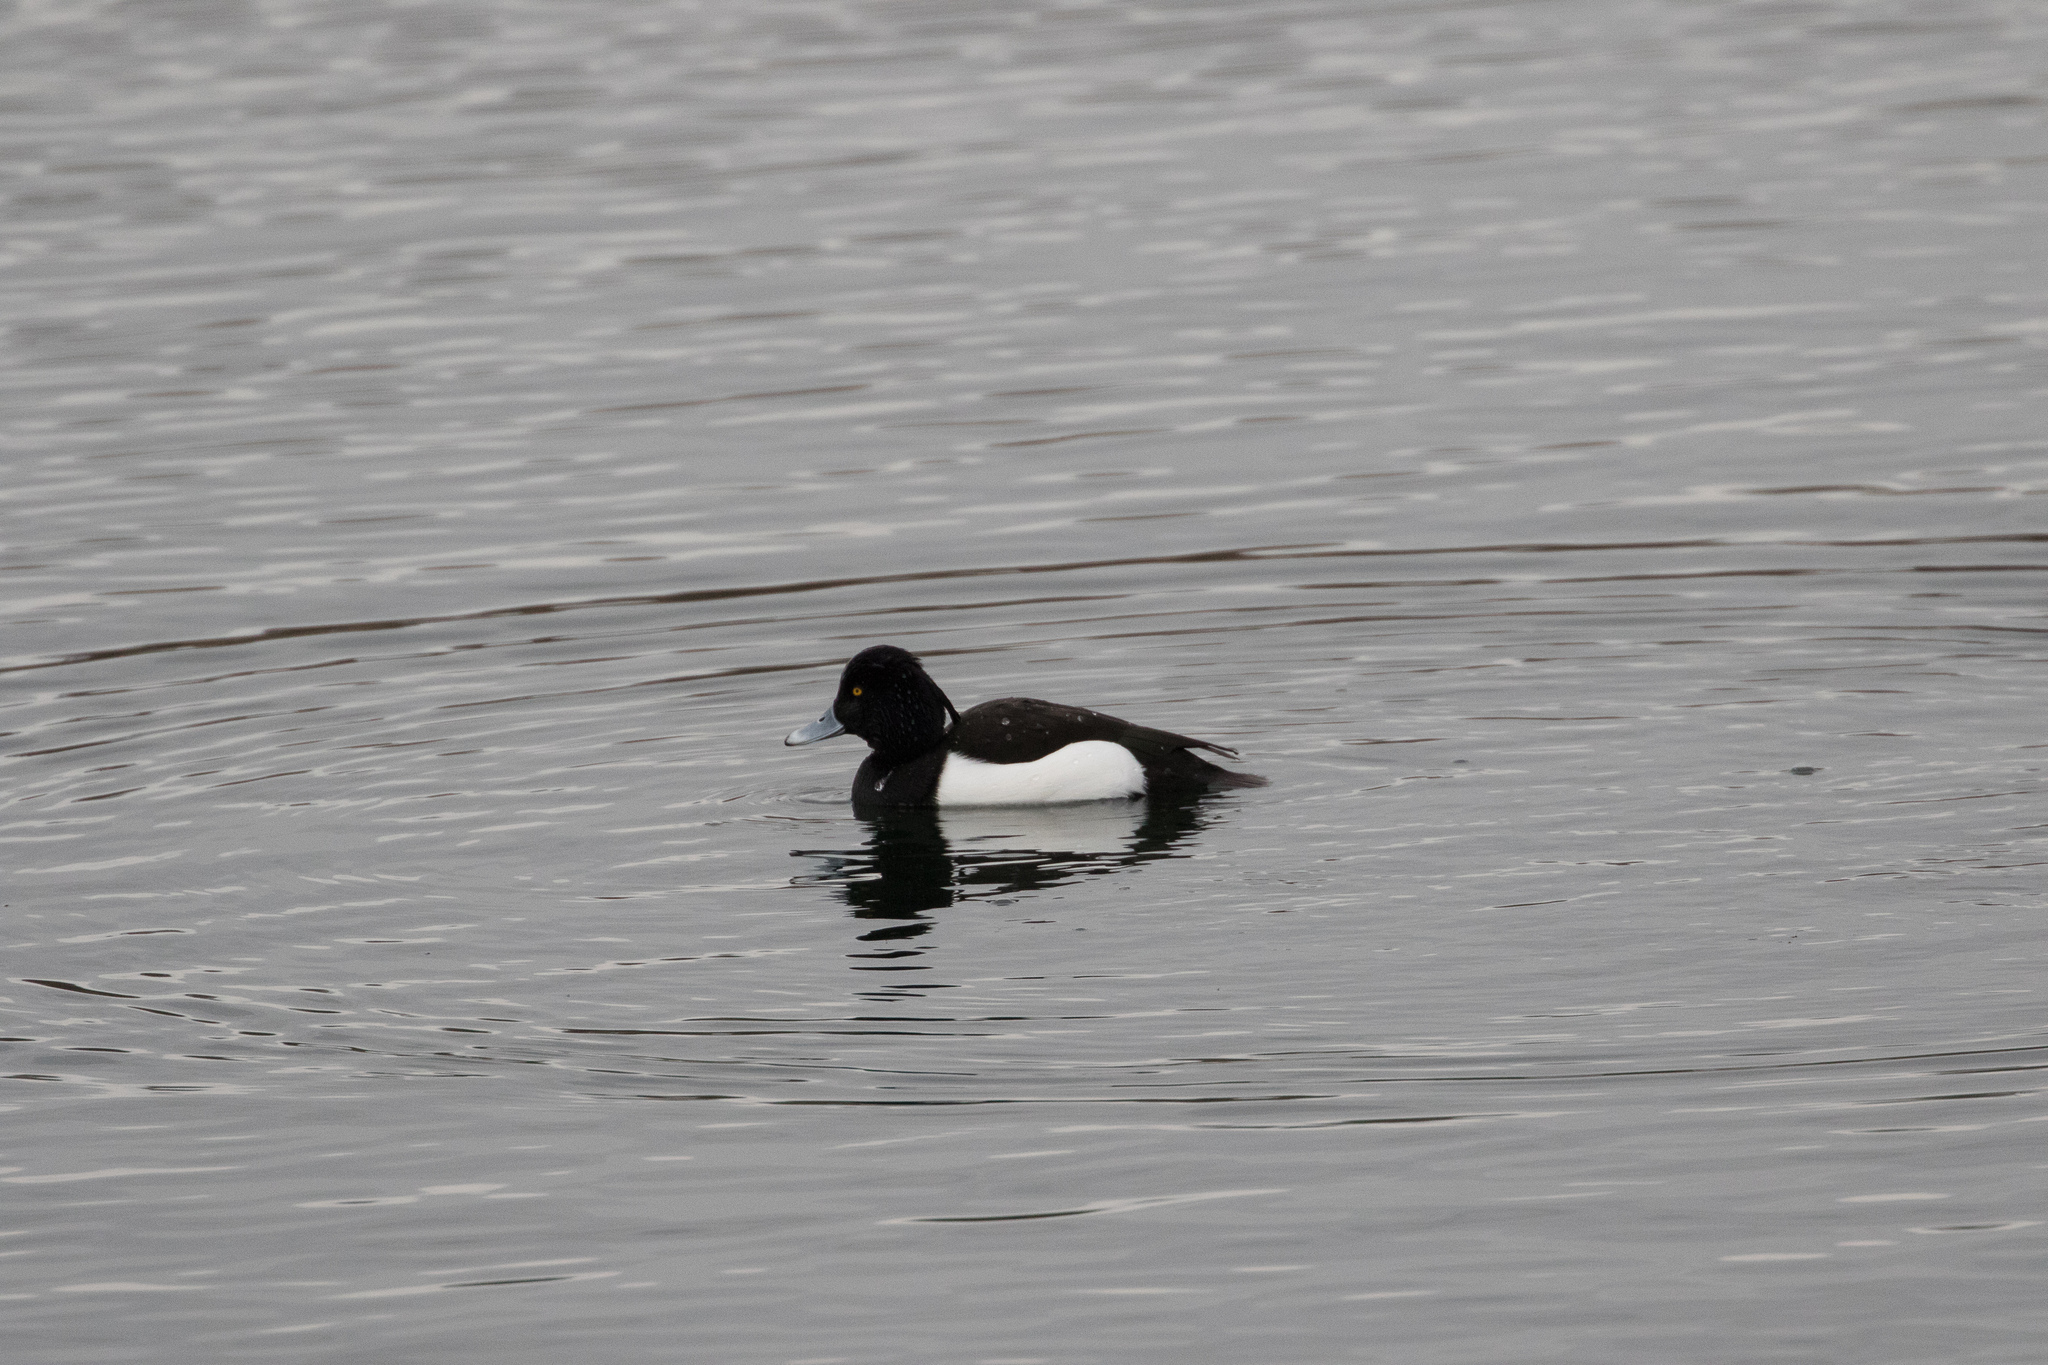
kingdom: Animalia
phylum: Chordata
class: Aves
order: Anseriformes
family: Anatidae
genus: Aythya
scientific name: Aythya fuligula
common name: Tufted duck
